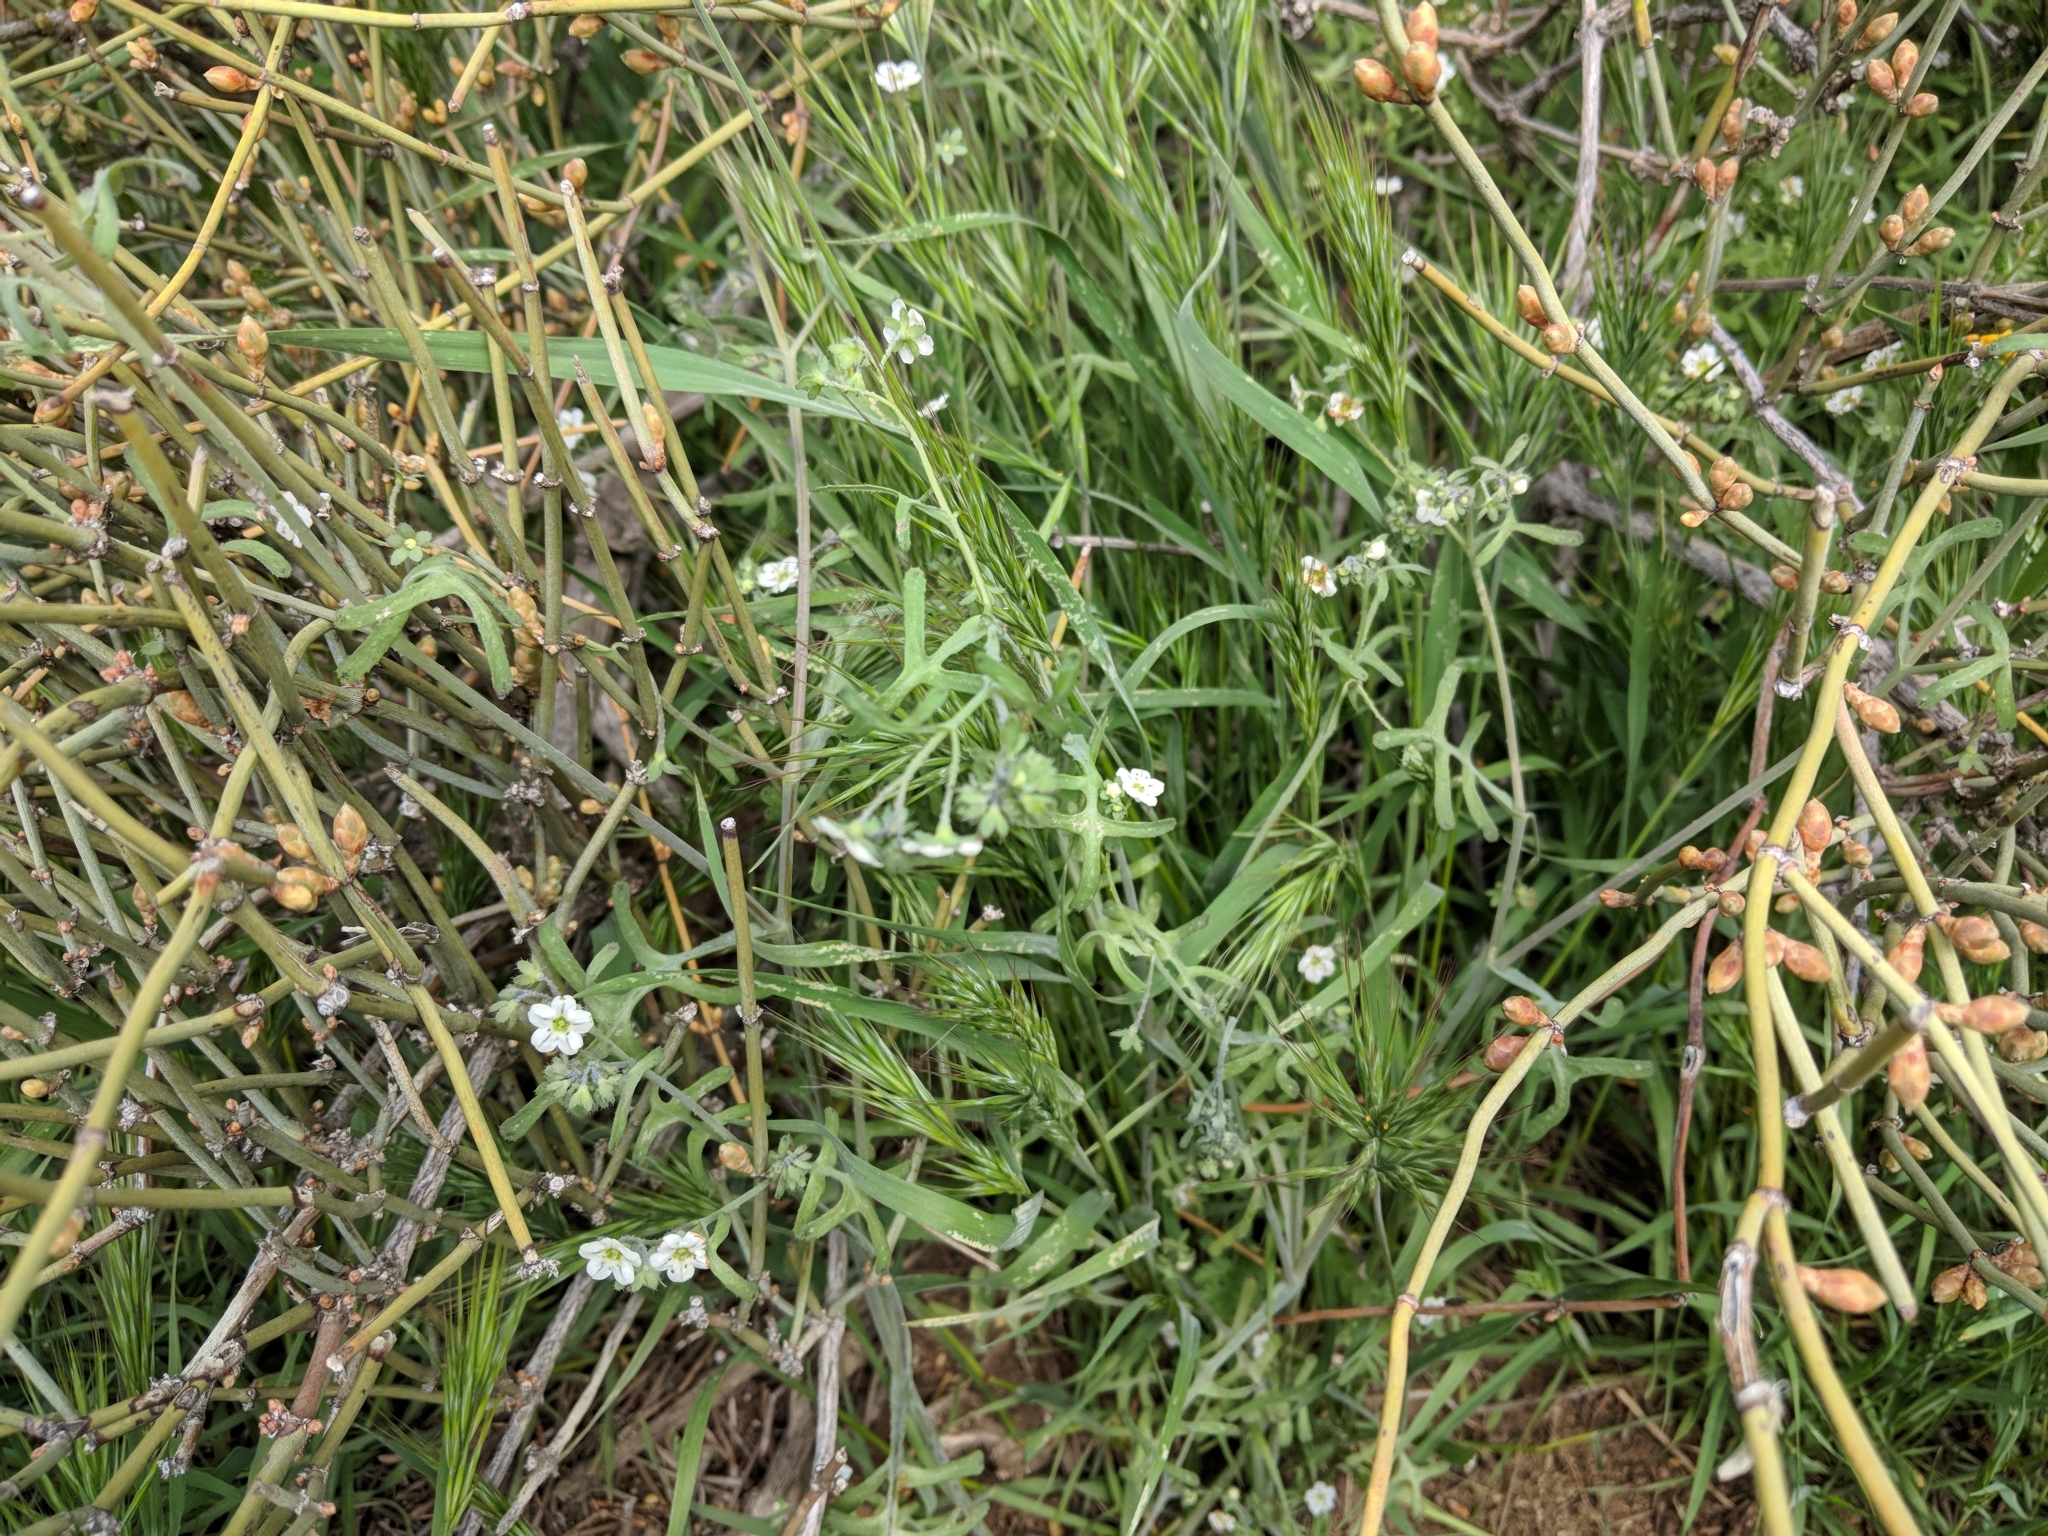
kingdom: Plantae
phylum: Tracheophyta
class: Magnoliopsida
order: Boraginales
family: Hydrophyllaceae
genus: Pholistoma
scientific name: Pholistoma membranaceum
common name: White fiesta-flower
